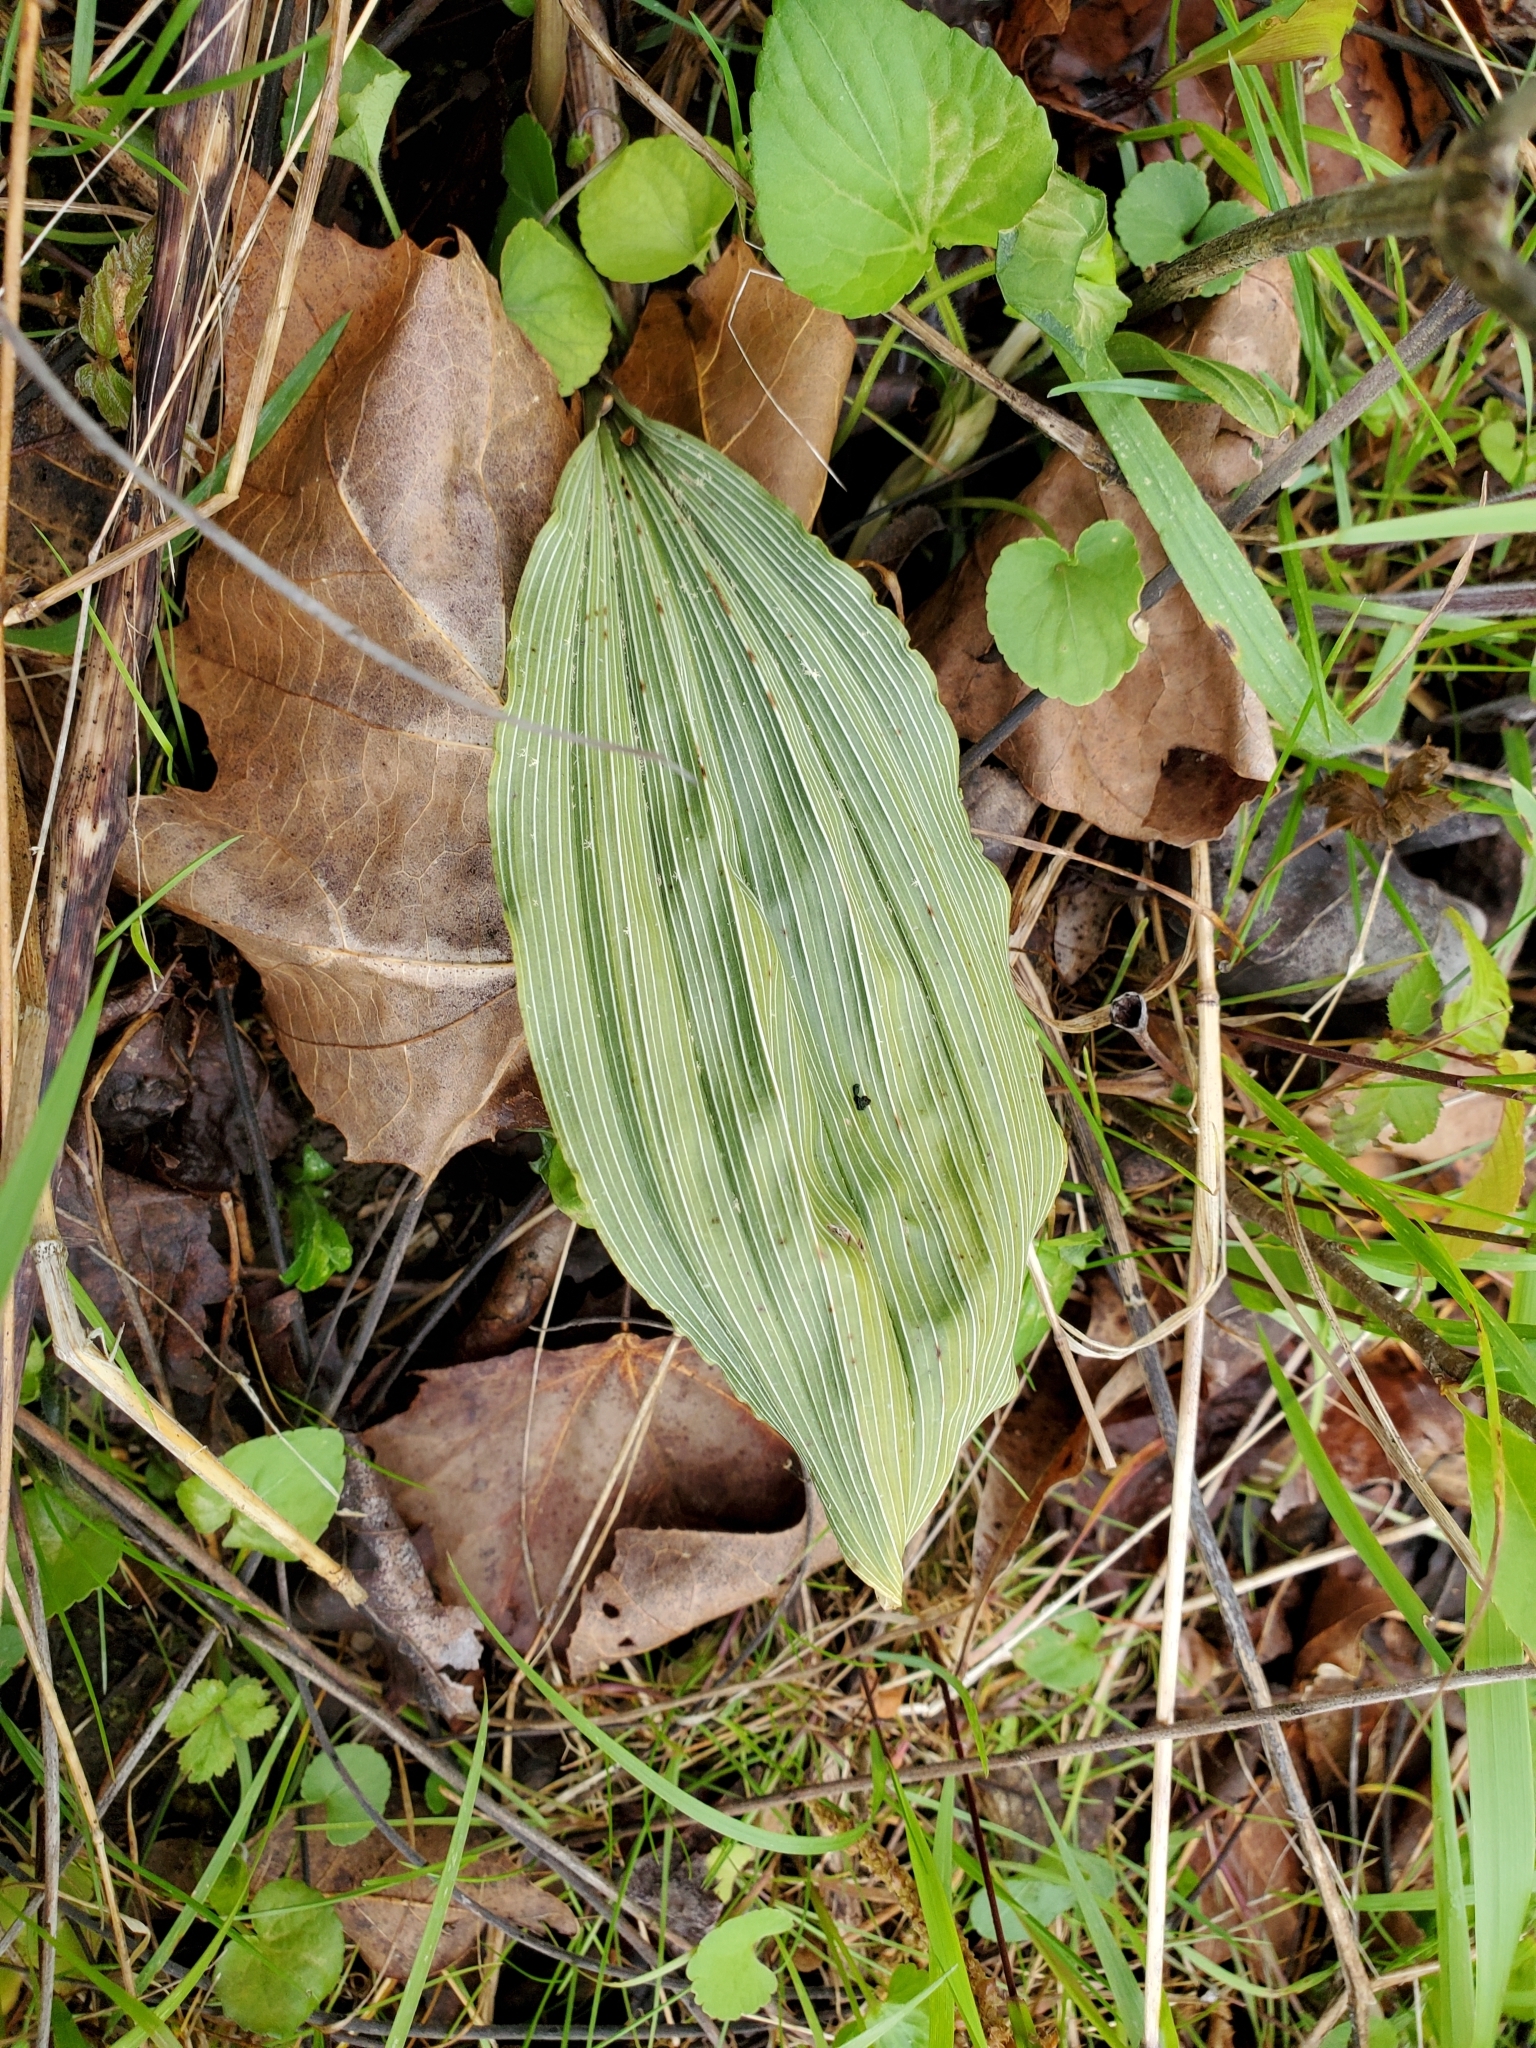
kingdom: Plantae
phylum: Tracheophyta
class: Liliopsida
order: Asparagales
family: Orchidaceae
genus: Aplectrum
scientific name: Aplectrum hyemale
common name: Adam-and-eve
